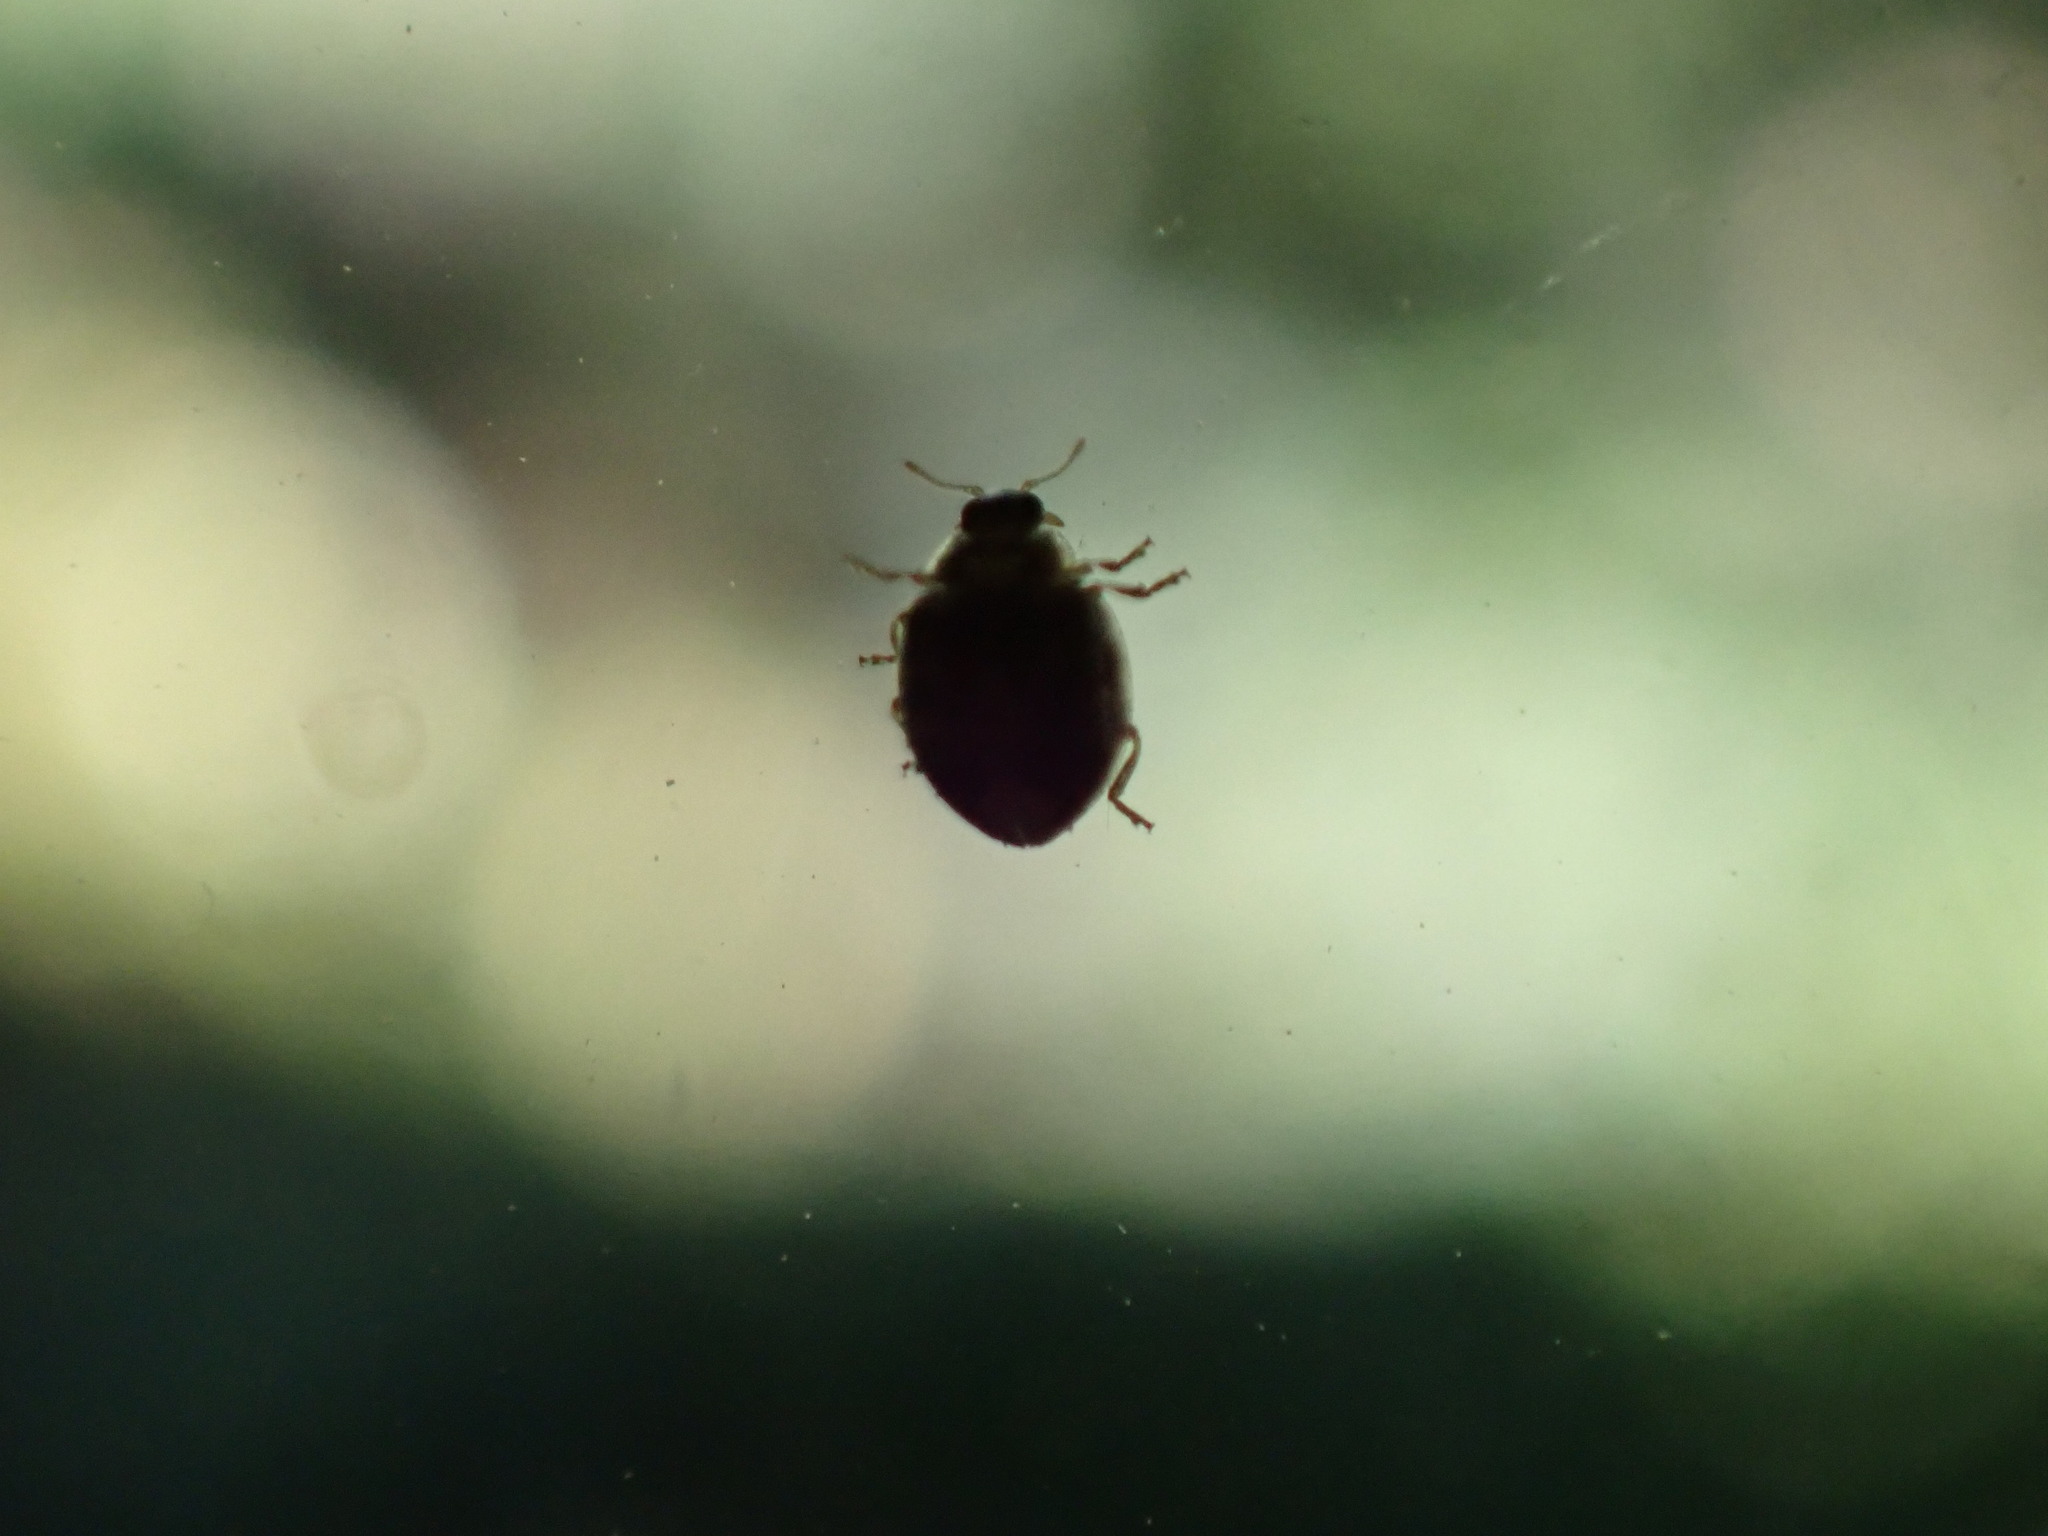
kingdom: Animalia
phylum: Arthropoda
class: Insecta
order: Coleoptera
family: Coccinellidae
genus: Psyllobora
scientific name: Psyllobora vigintimaculata
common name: Ladybird beetle
